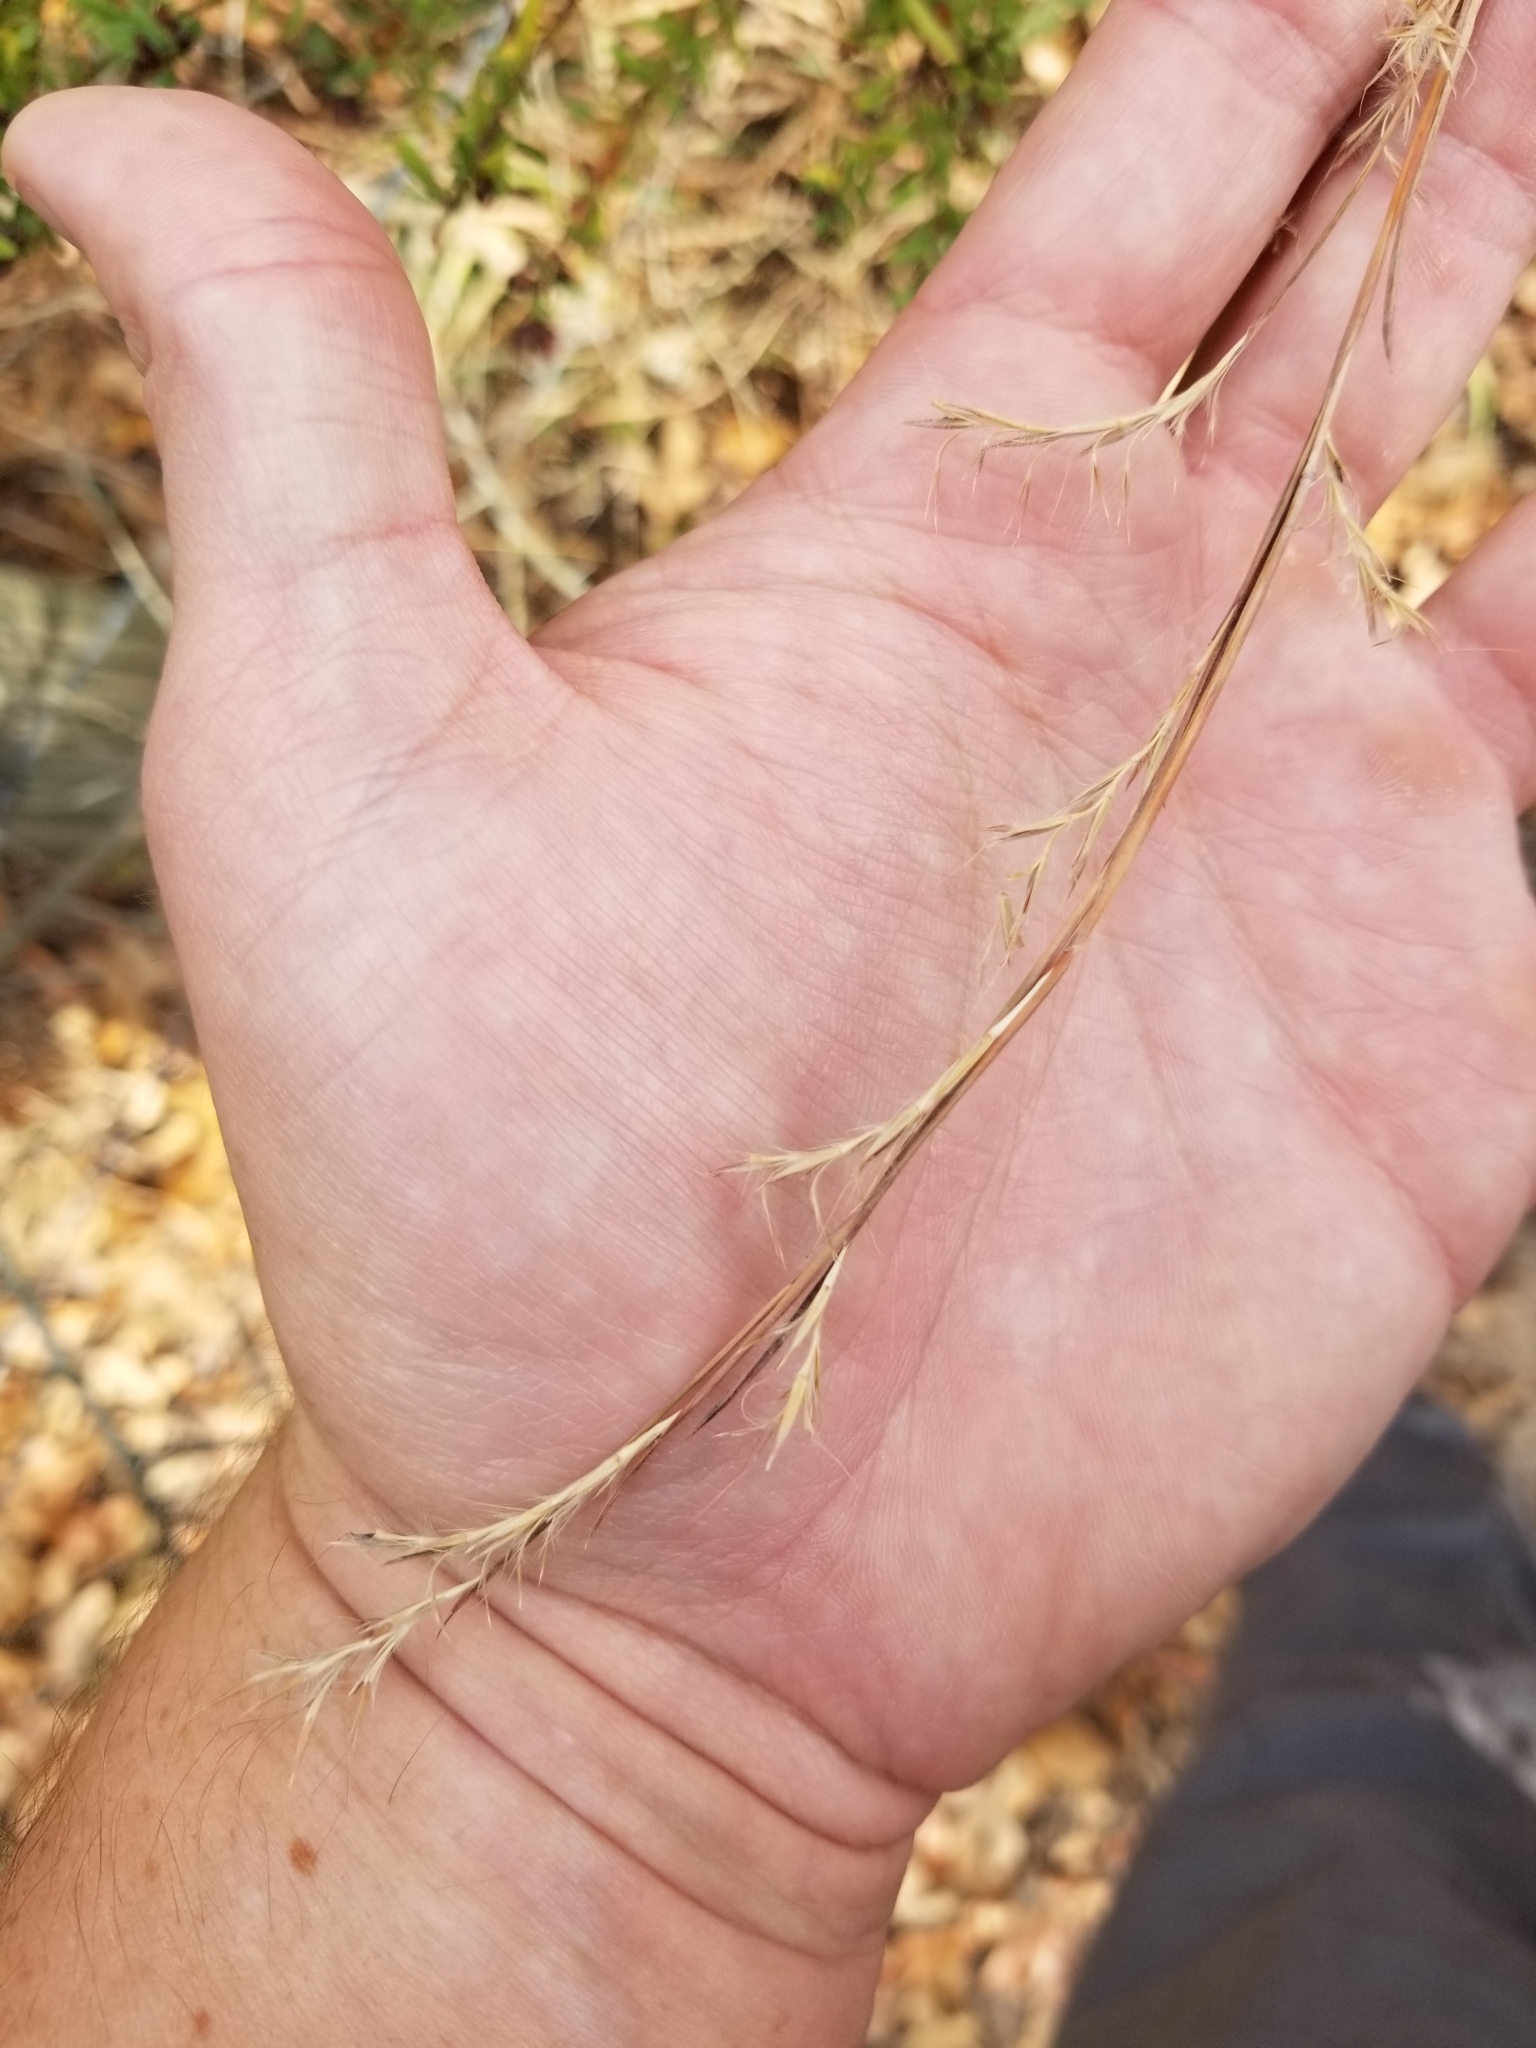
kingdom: Plantae
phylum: Tracheophyta
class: Liliopsida
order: Poales
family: Poaceae
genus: Schizachyrium
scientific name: Schizachyrium scoparium
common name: Little bluestem
